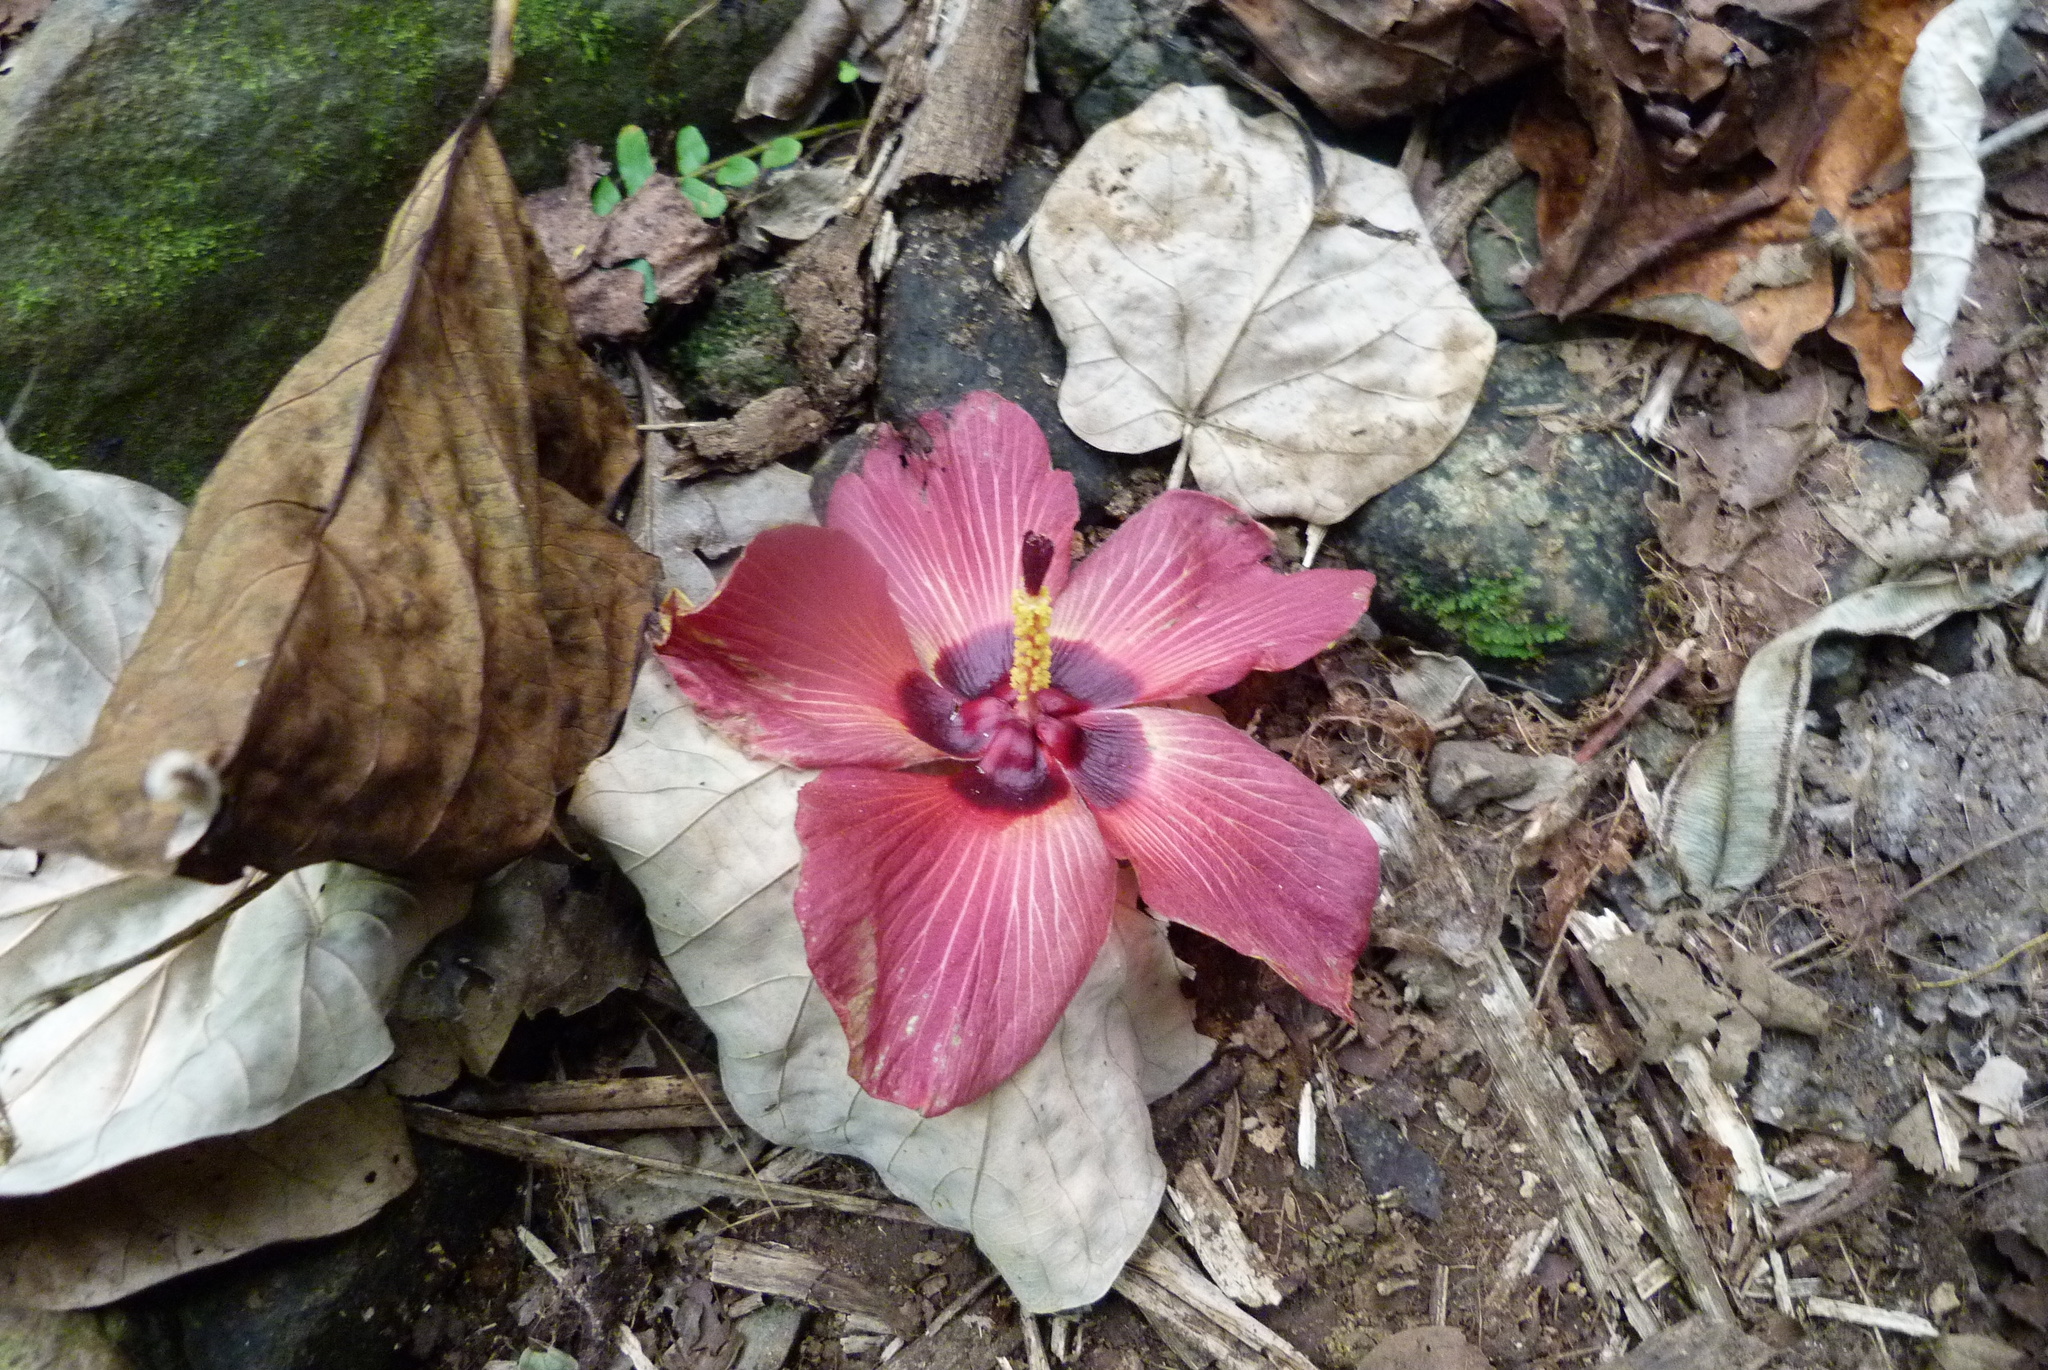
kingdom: Plantae
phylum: Tracheophyta
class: Magnoliopsida
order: Malvales
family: Malvaceae
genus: Talipariti
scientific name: Talipariti tiliaceum
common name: Sea hibiscus
